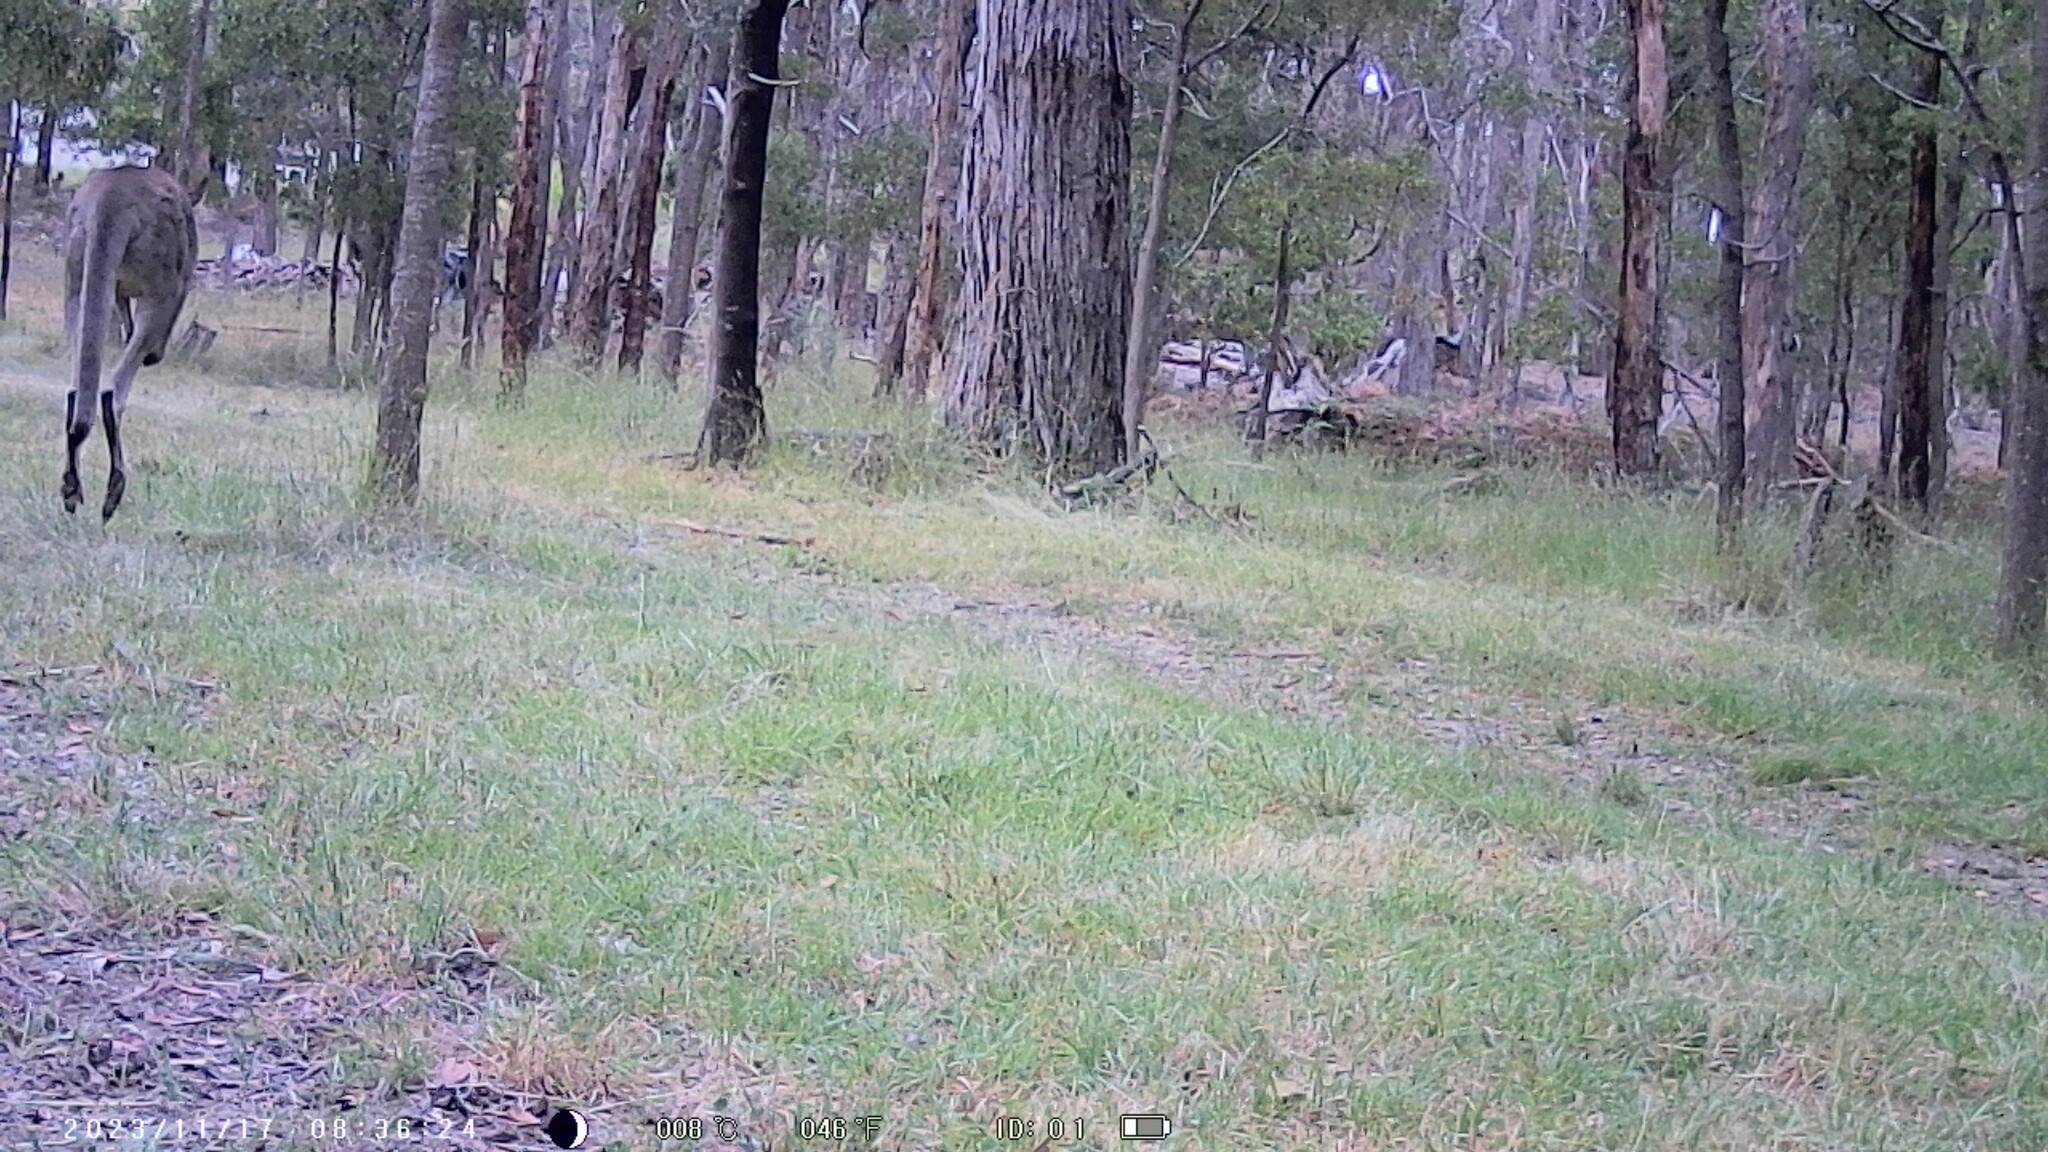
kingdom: Animalia
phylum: Chordata
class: Mammalia
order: Diprotodontia
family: Macropodidae
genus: Macropus
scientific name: Macropus giganteus
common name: Eastern grey kangaroo
